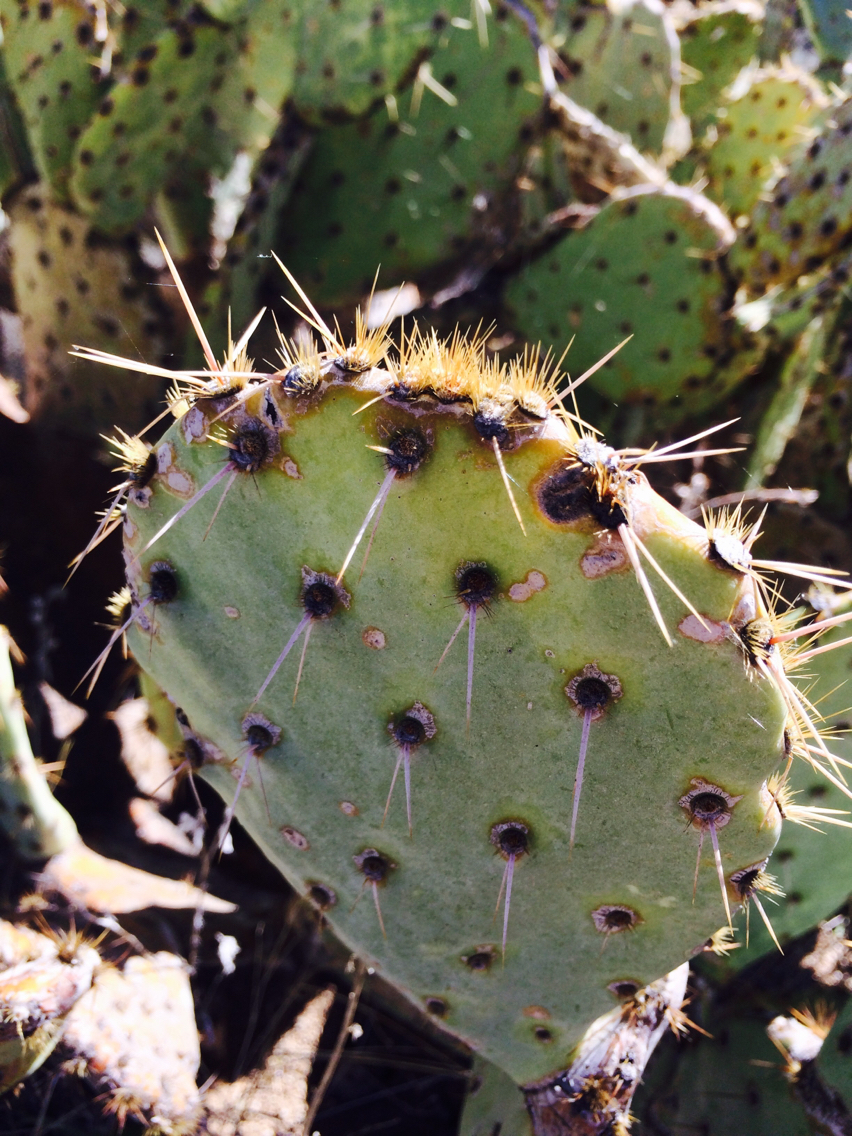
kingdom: Plantae
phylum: Tracheophyta
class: Magnoliopsida
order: Caryophyllales
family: Cactaceae
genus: Opuntia
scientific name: Opuntia engelmannii
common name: Cactus-apple
